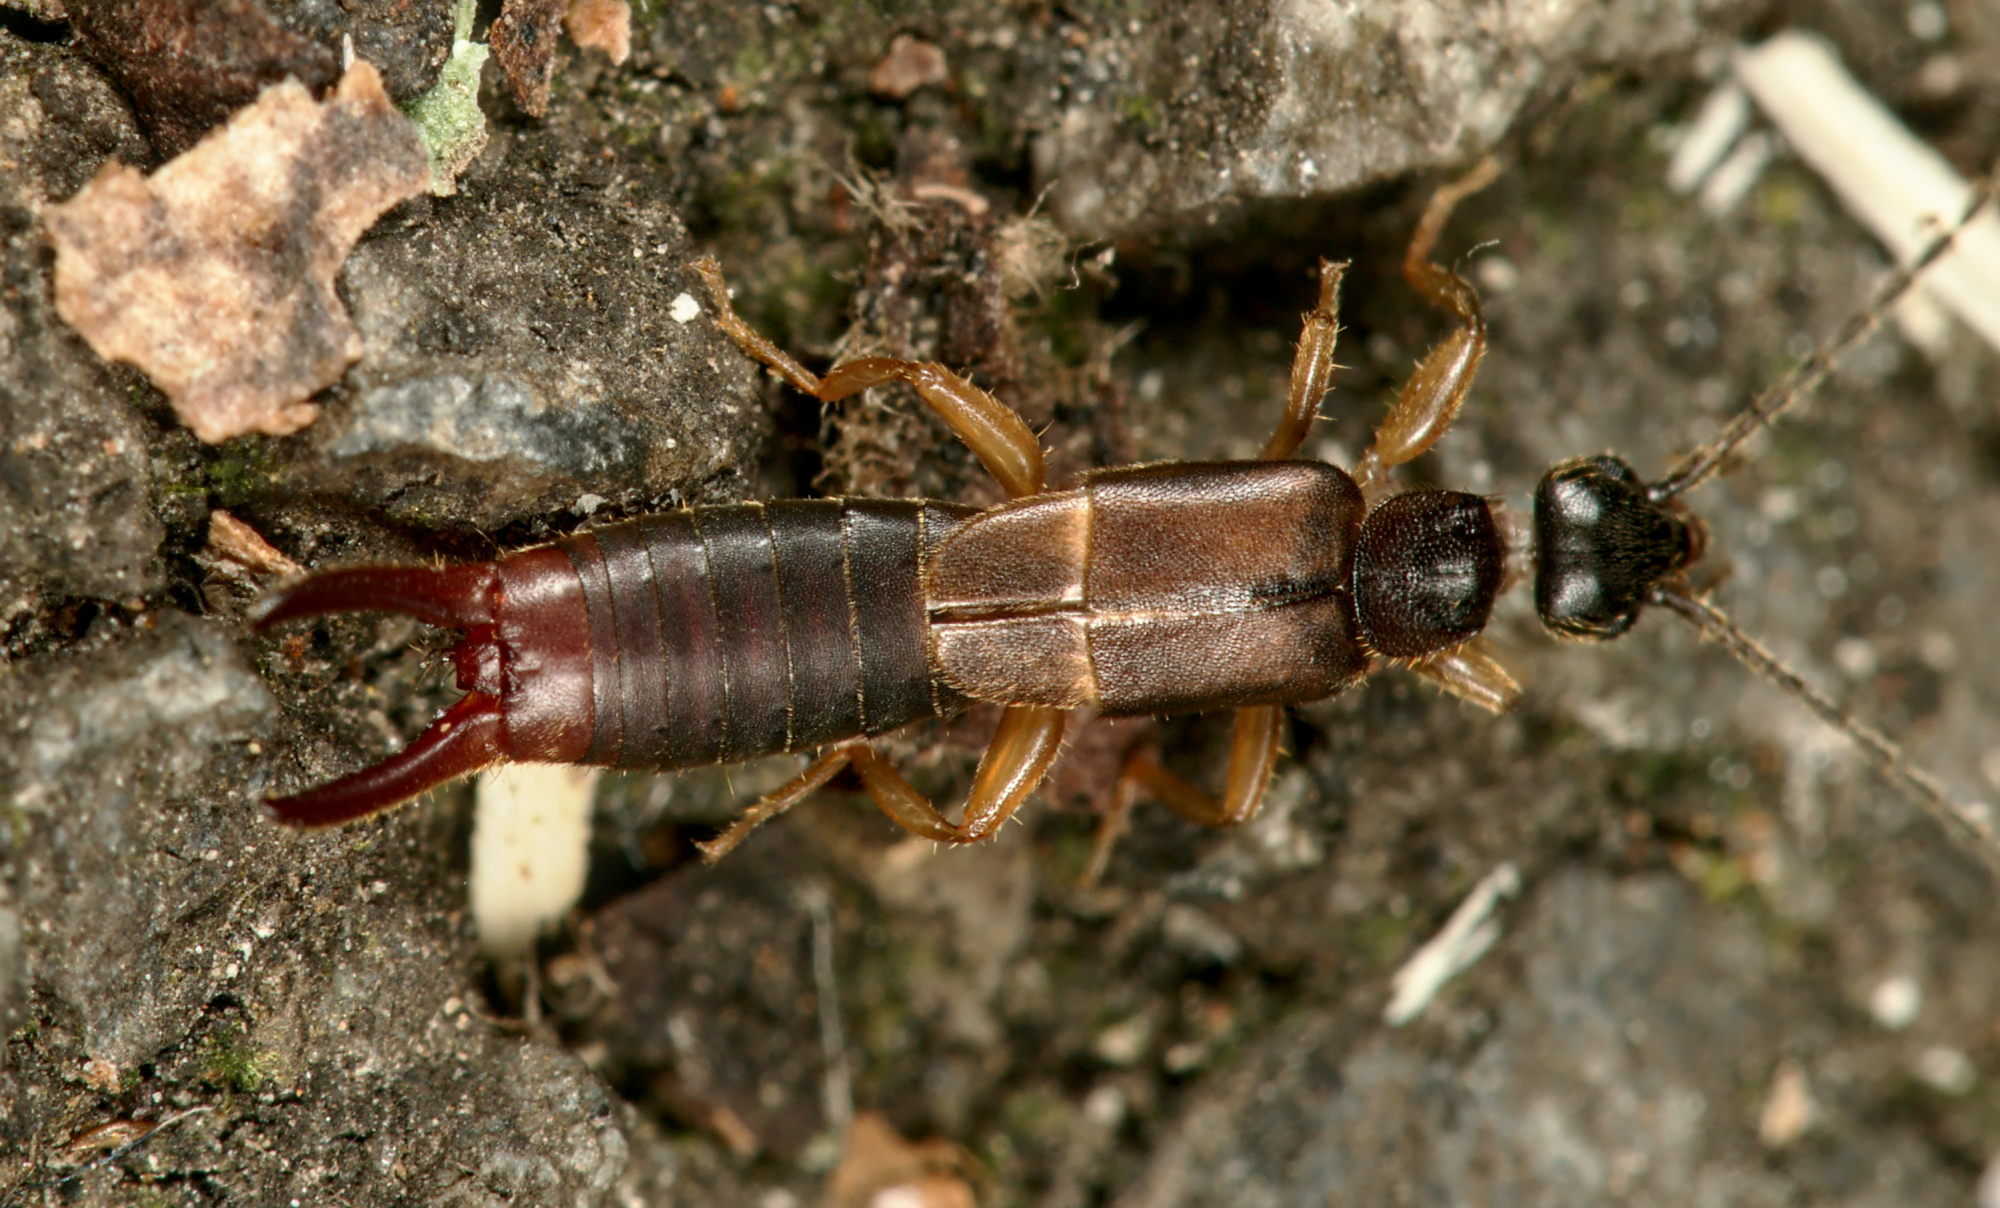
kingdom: Animalia
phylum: Arthropoda
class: Insecta
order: Dermaptera
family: Spongiphoridae
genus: Labia
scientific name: Labia minor
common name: Lesser earwig
